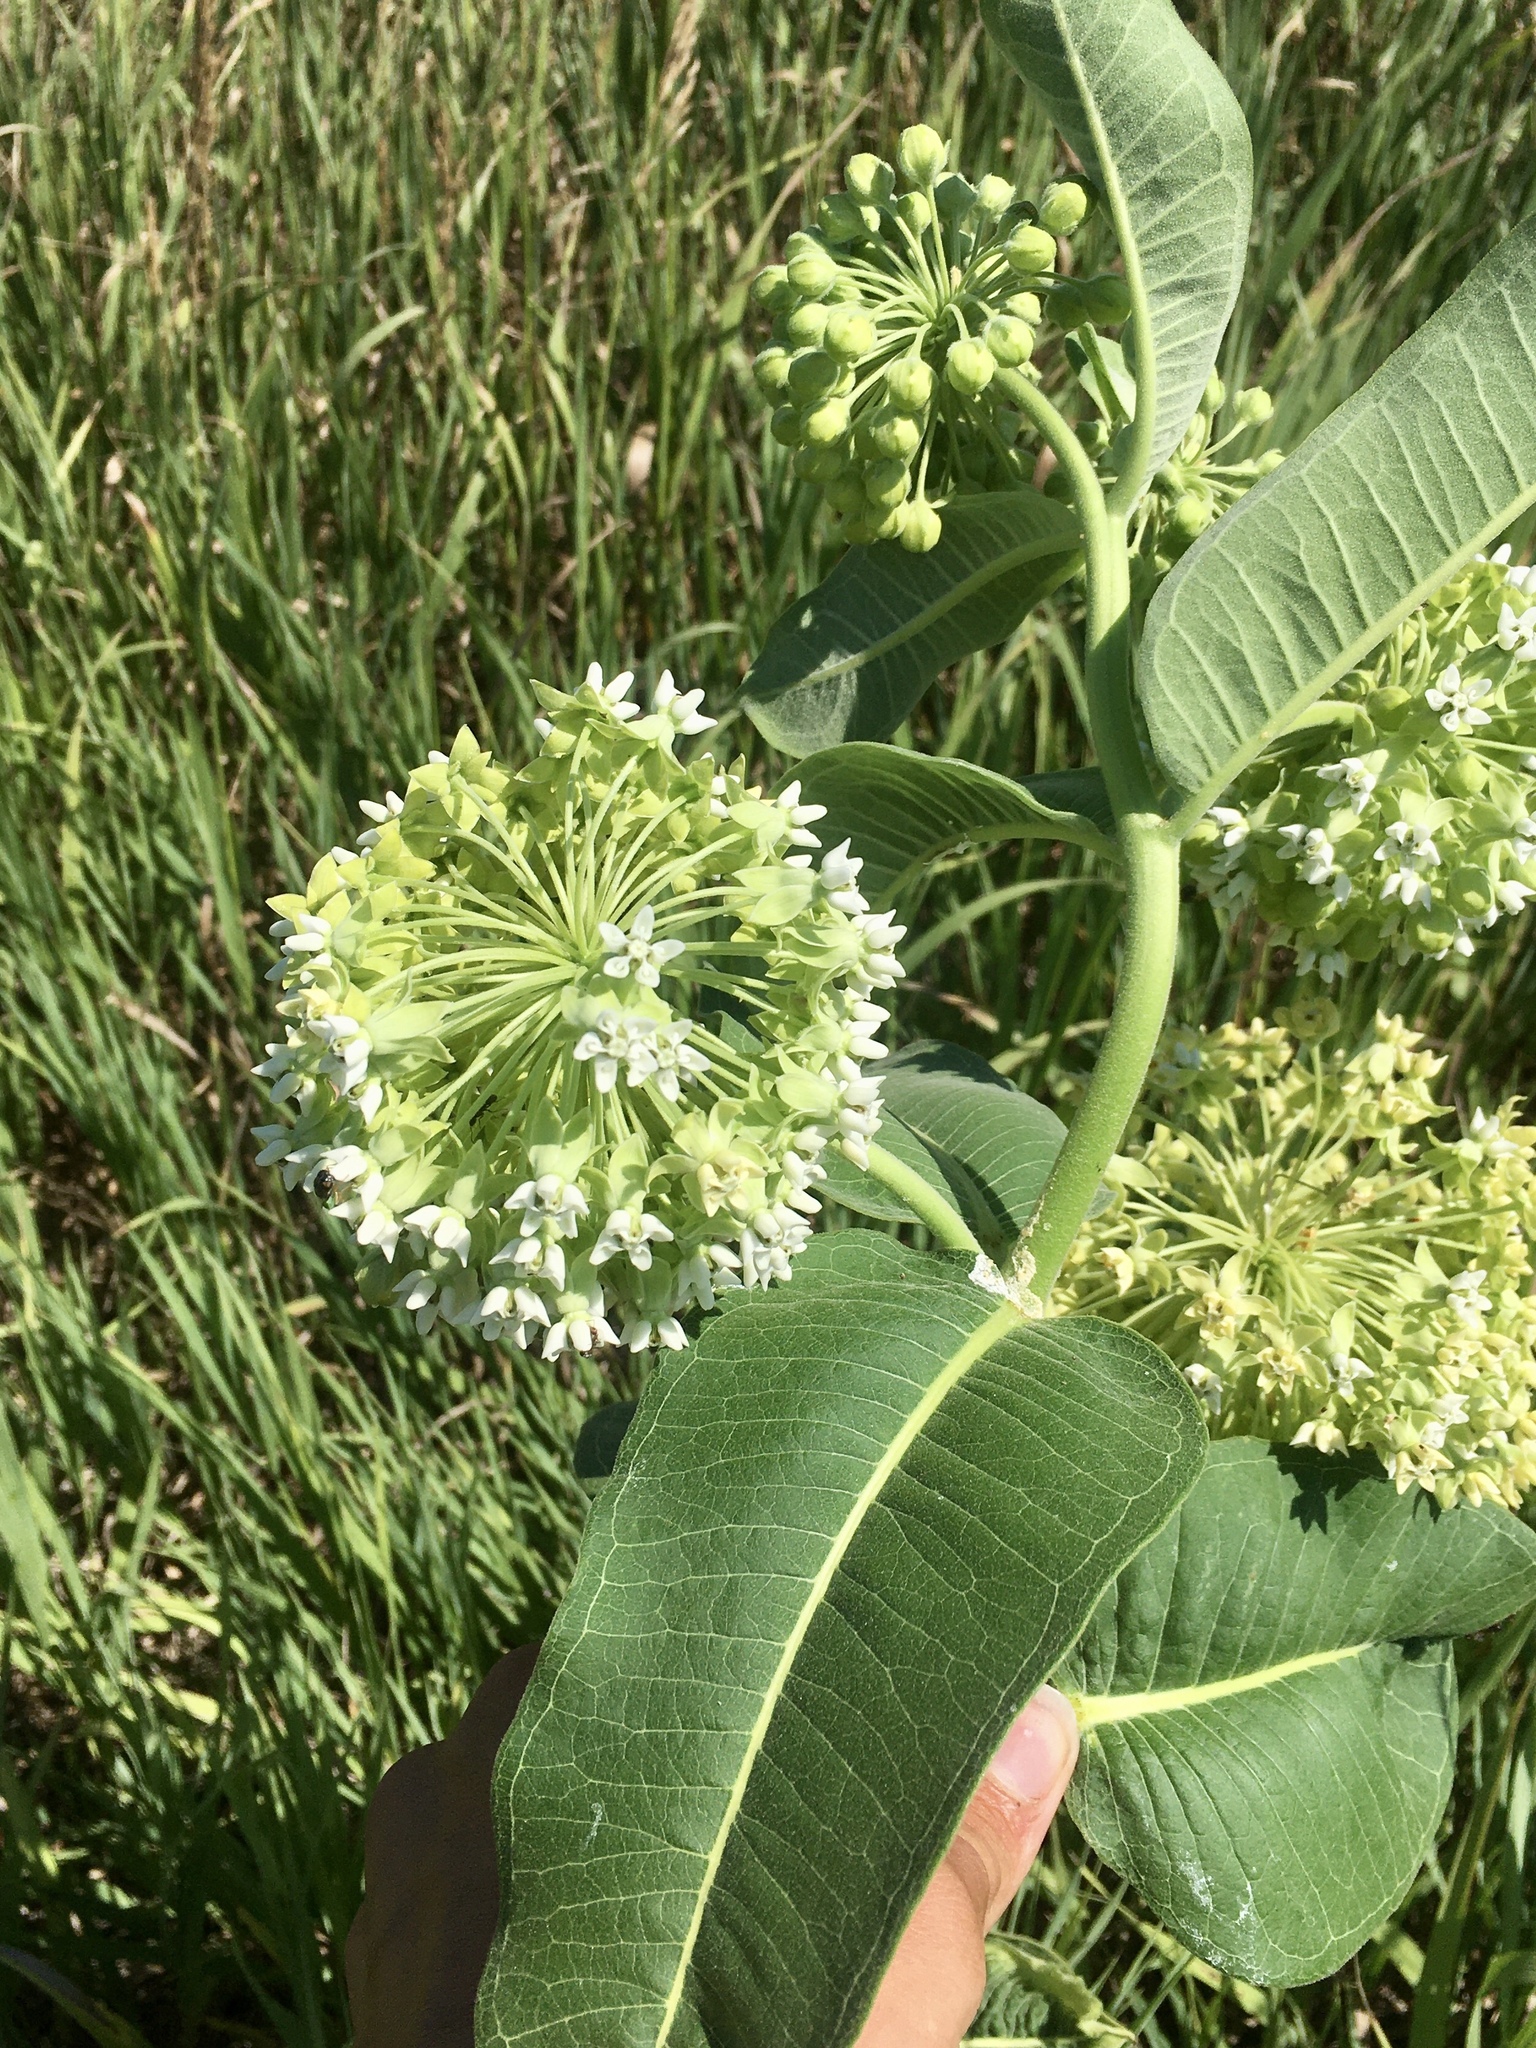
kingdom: Plantae
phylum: Tracheophyta
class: Magnoliopsida
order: Gentianales
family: Apocynaceae
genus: Asclepias
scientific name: Asclepias syriaca
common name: Common milkweed
